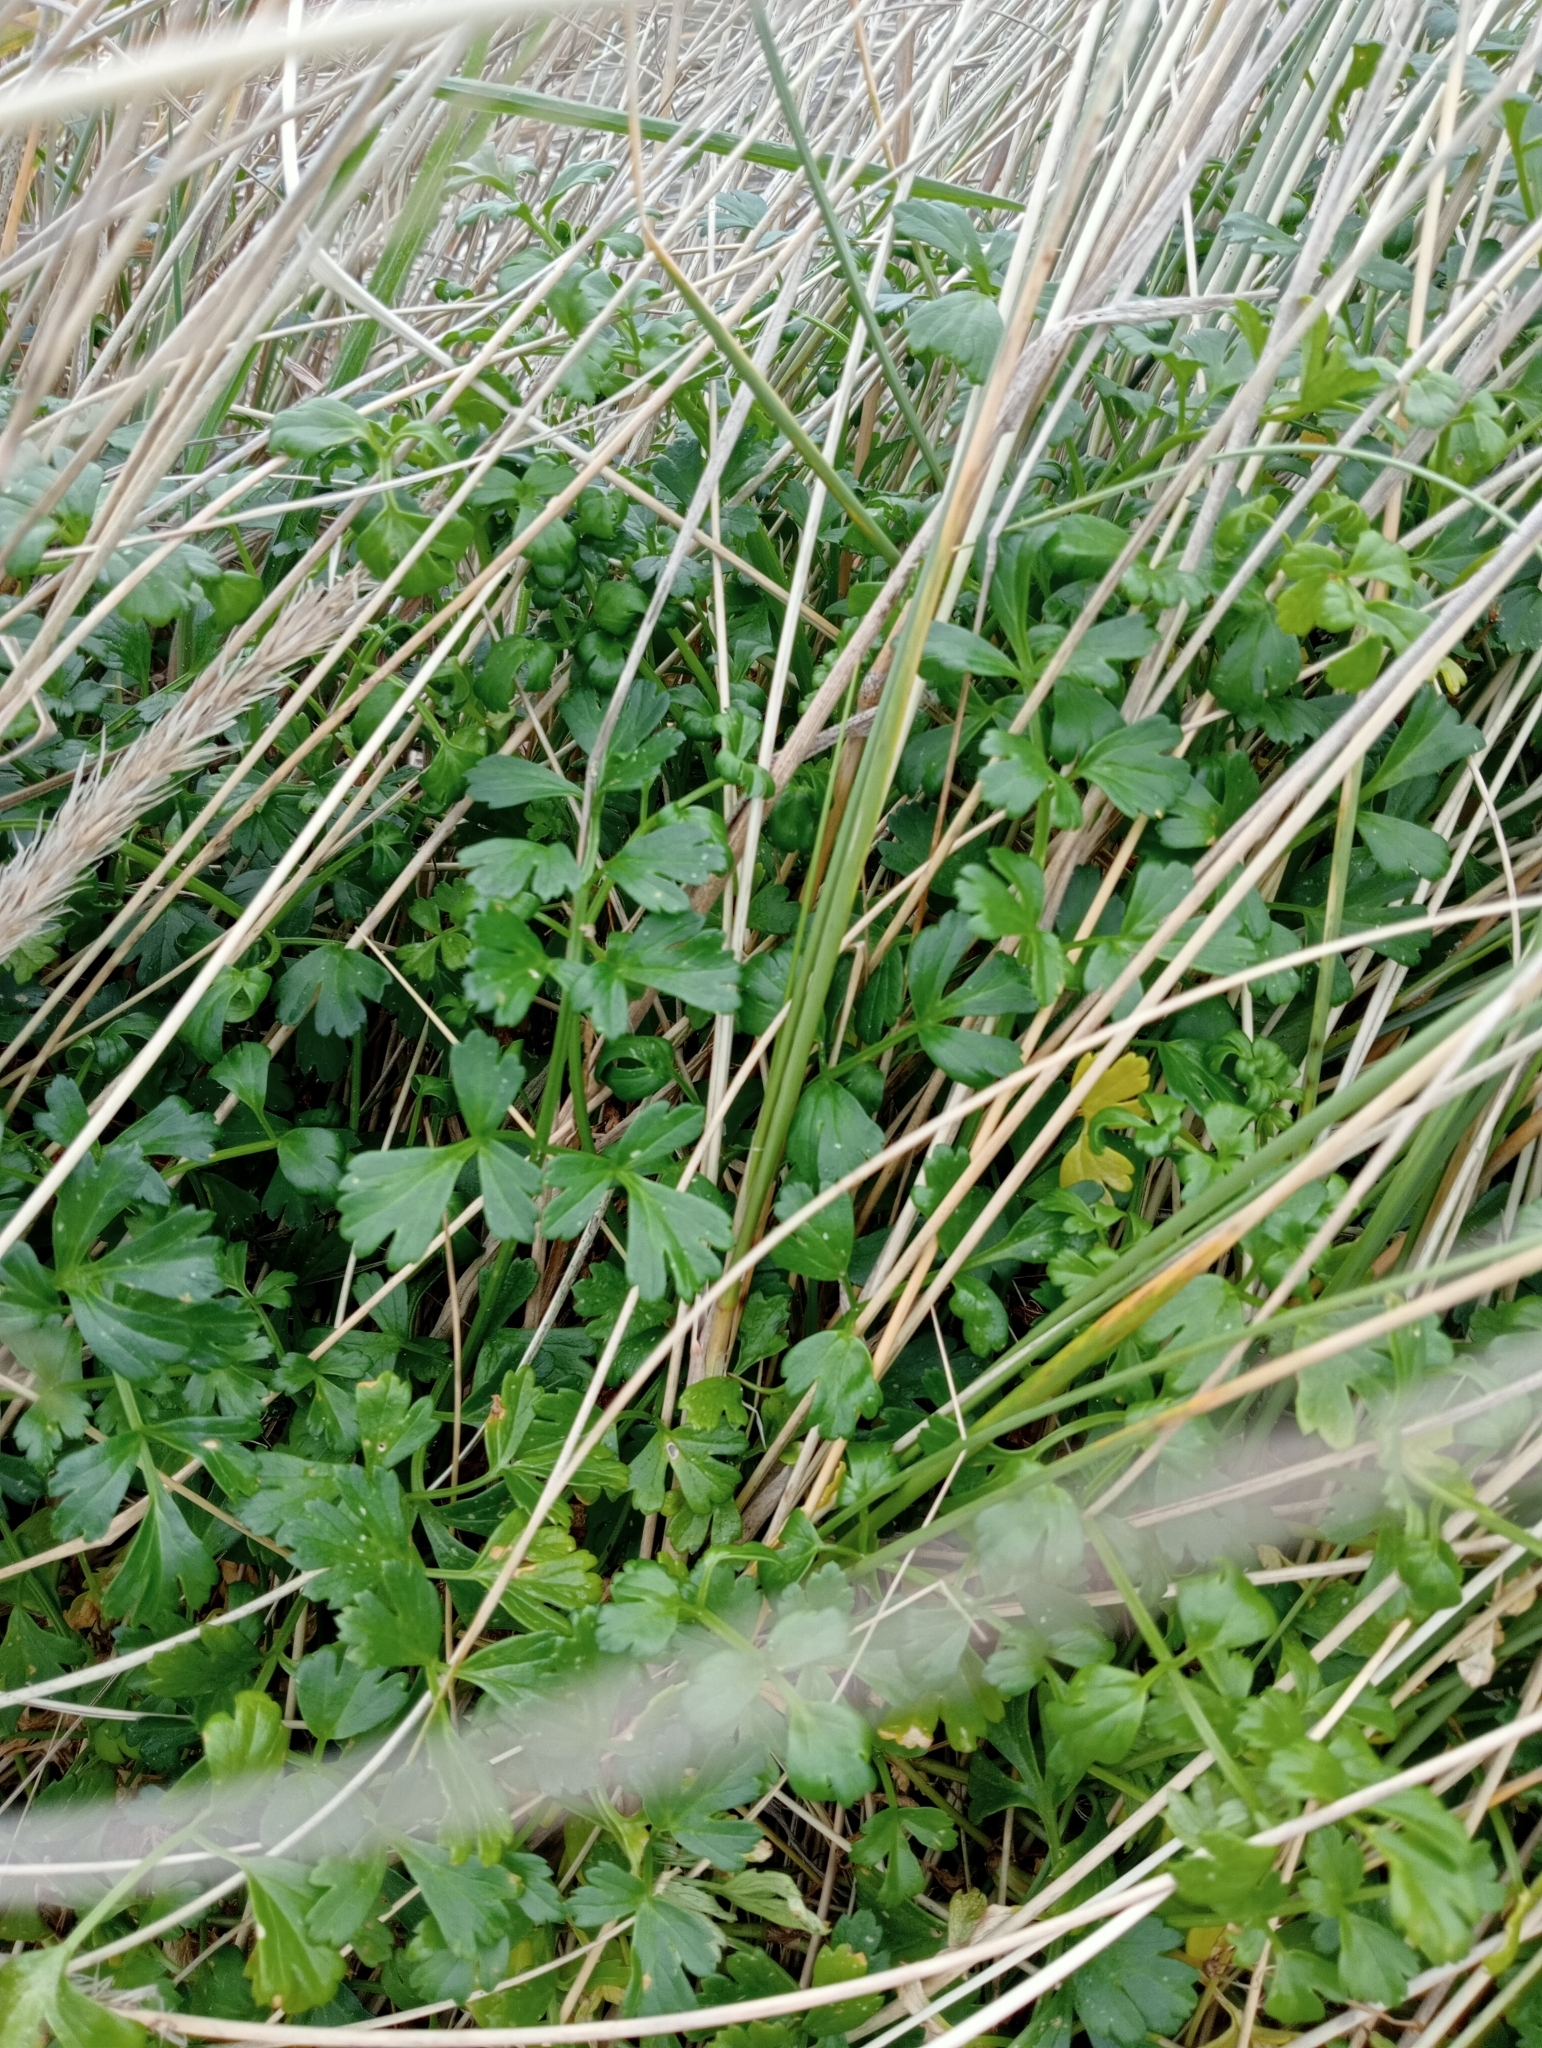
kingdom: Plantae
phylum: Tracheophyta
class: Magnoliopsida
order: Apiales
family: Apiaceae
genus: Apium
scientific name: Apium prostratum
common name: Prostrate marshwort
